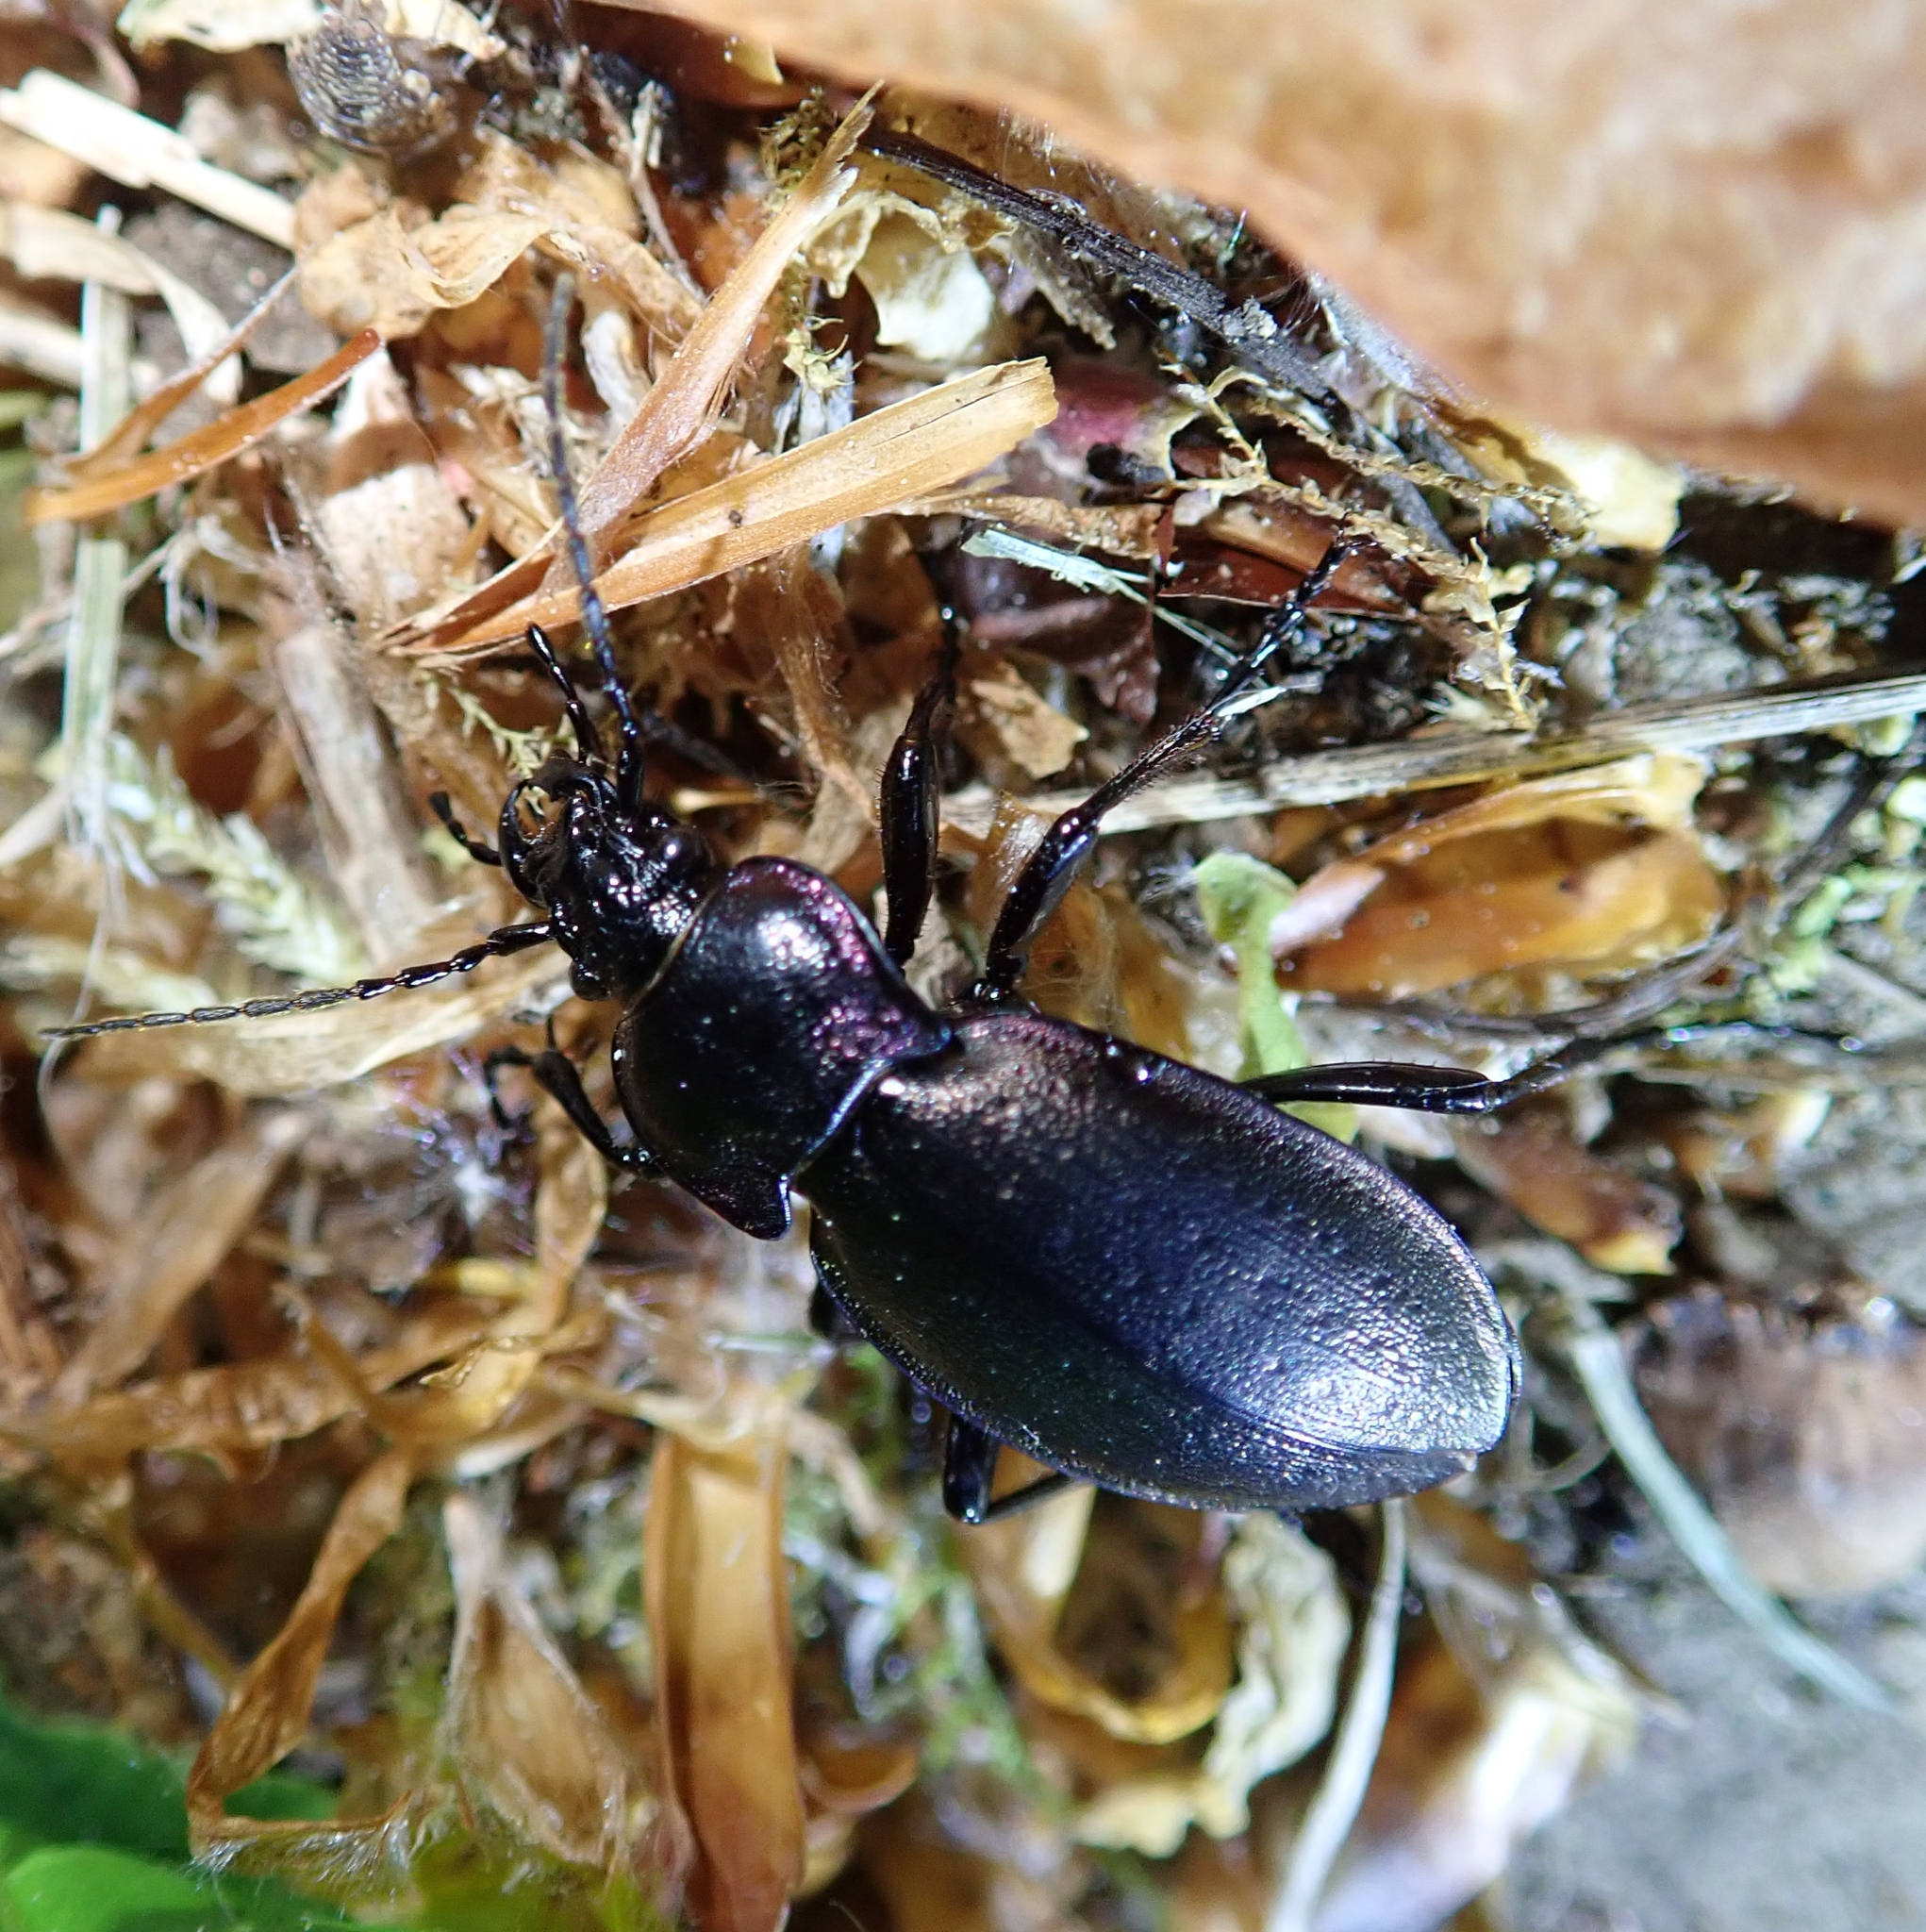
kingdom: Animalia
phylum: Arthropoda
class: Insecta
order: Coleoptera
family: Carabidae
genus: Carabus
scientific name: Carabus nemoralis
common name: European ground beetle
